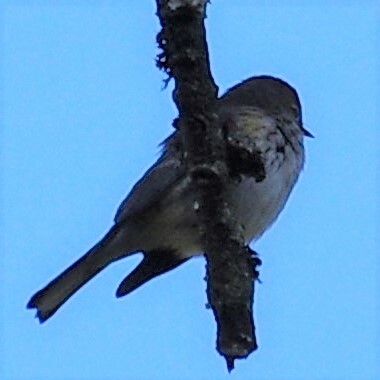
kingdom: Animalia
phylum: Chordata
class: Aves
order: Passeriformes
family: Parulidae
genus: Setophaga
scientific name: Setophaga coronata
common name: Myrtle warbler
